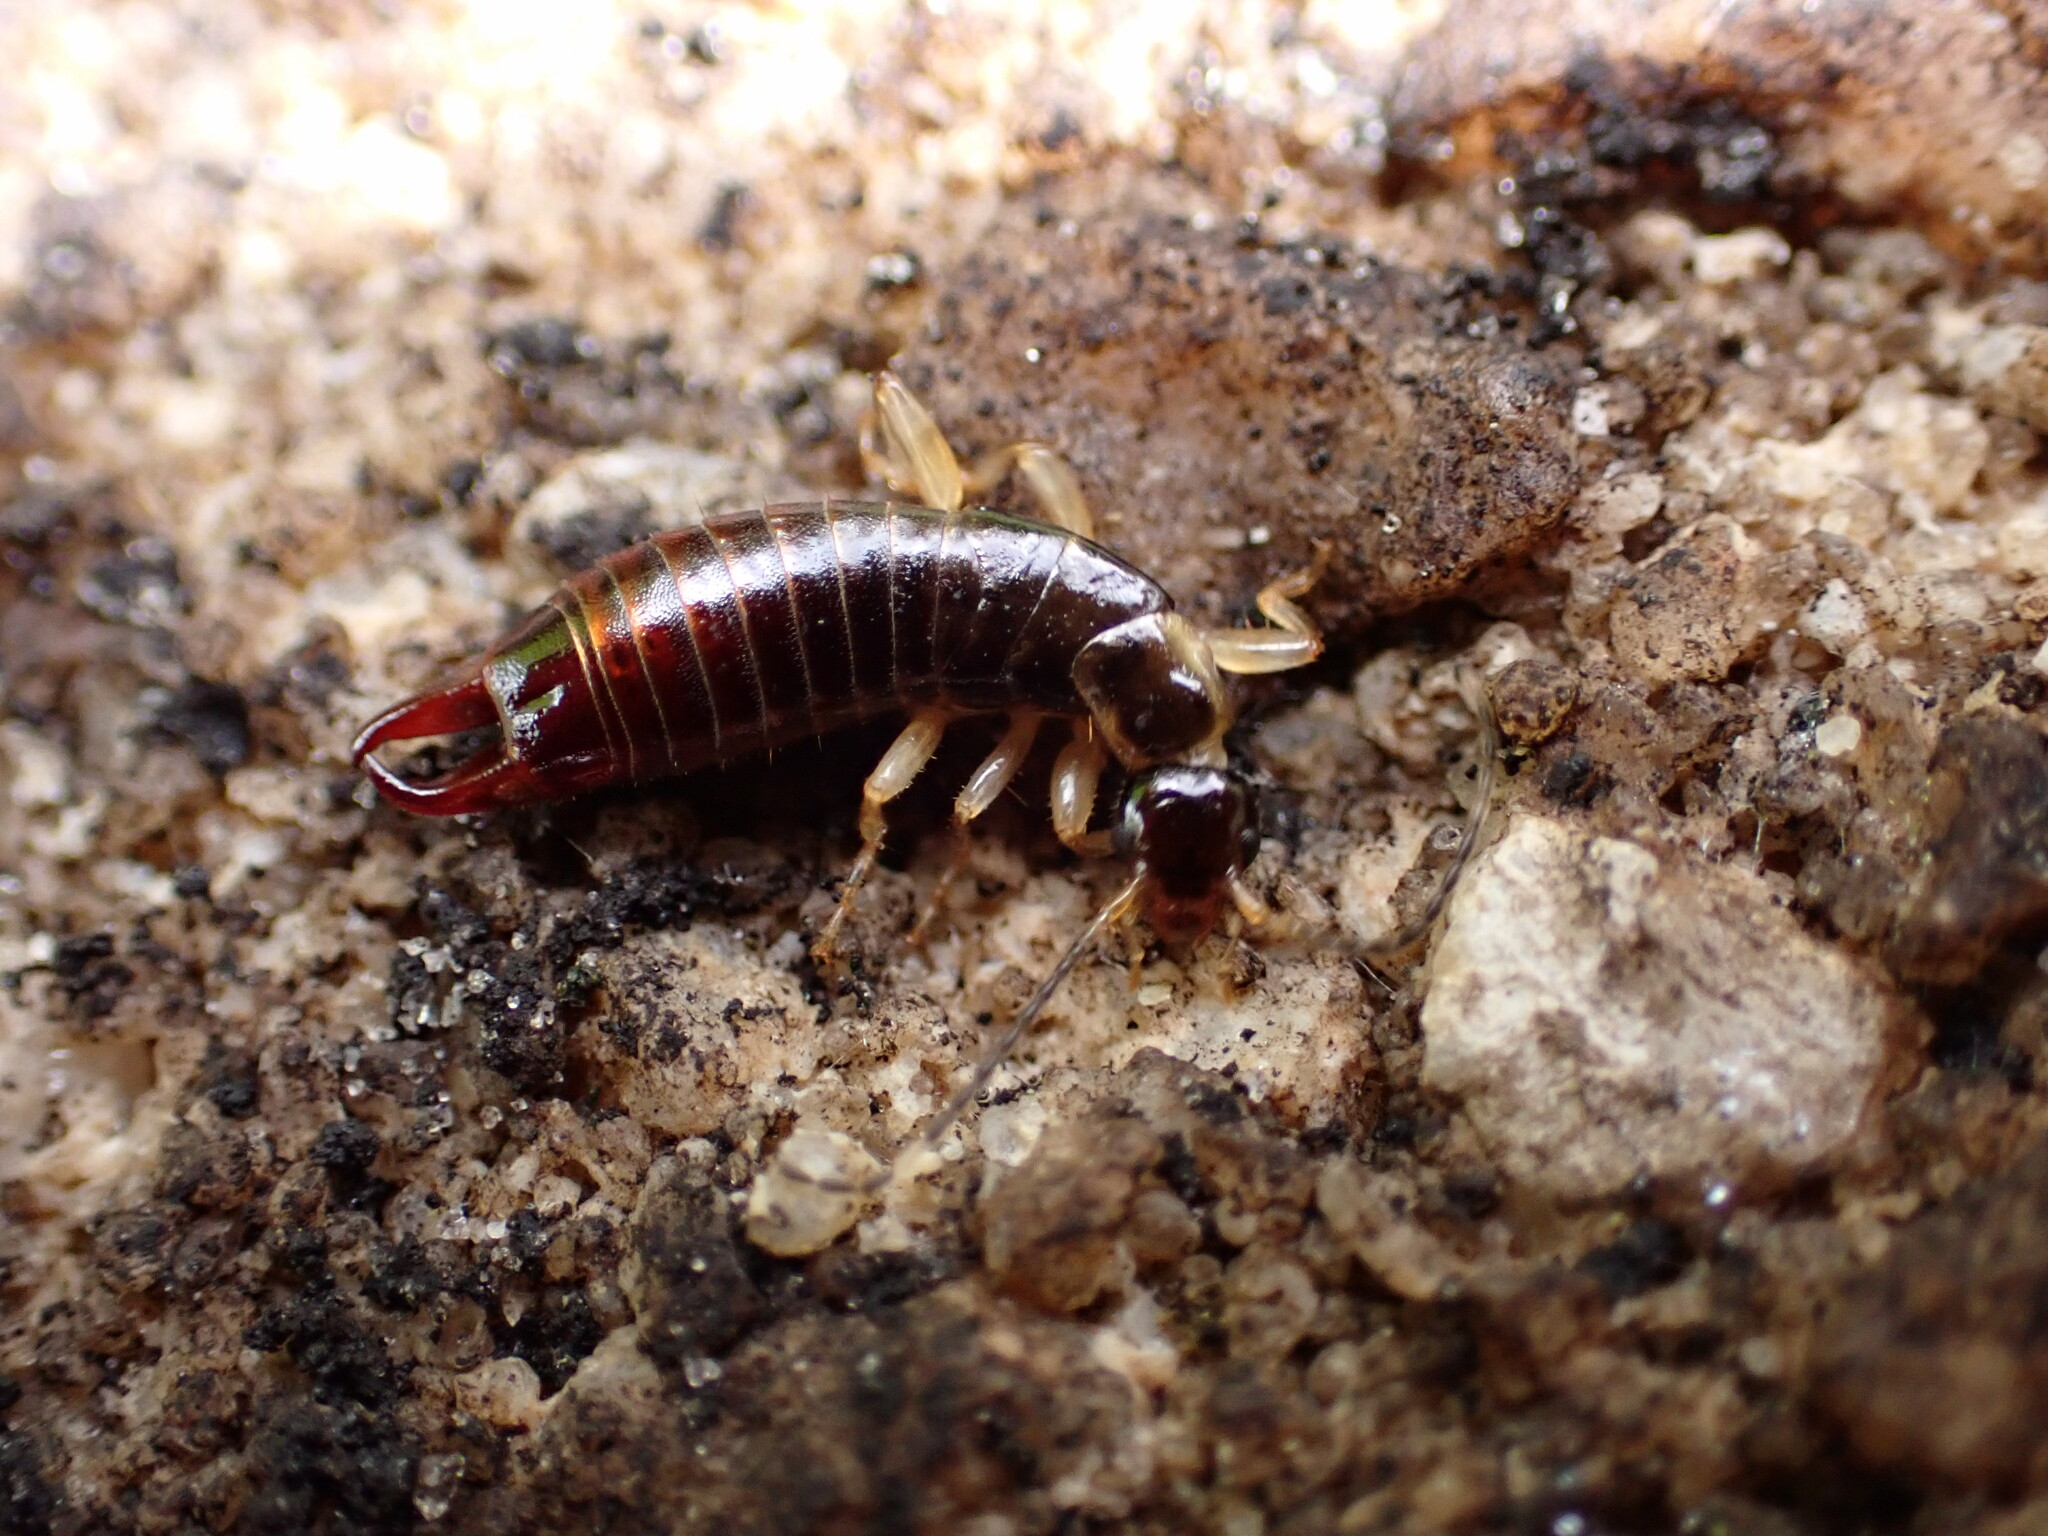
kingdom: Animalia
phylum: Arthropoda
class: Insecta
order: Dermaptera
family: Anisolabididae
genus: Euborellia
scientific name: Euborellia annulipes
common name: Ringlegged earwig
